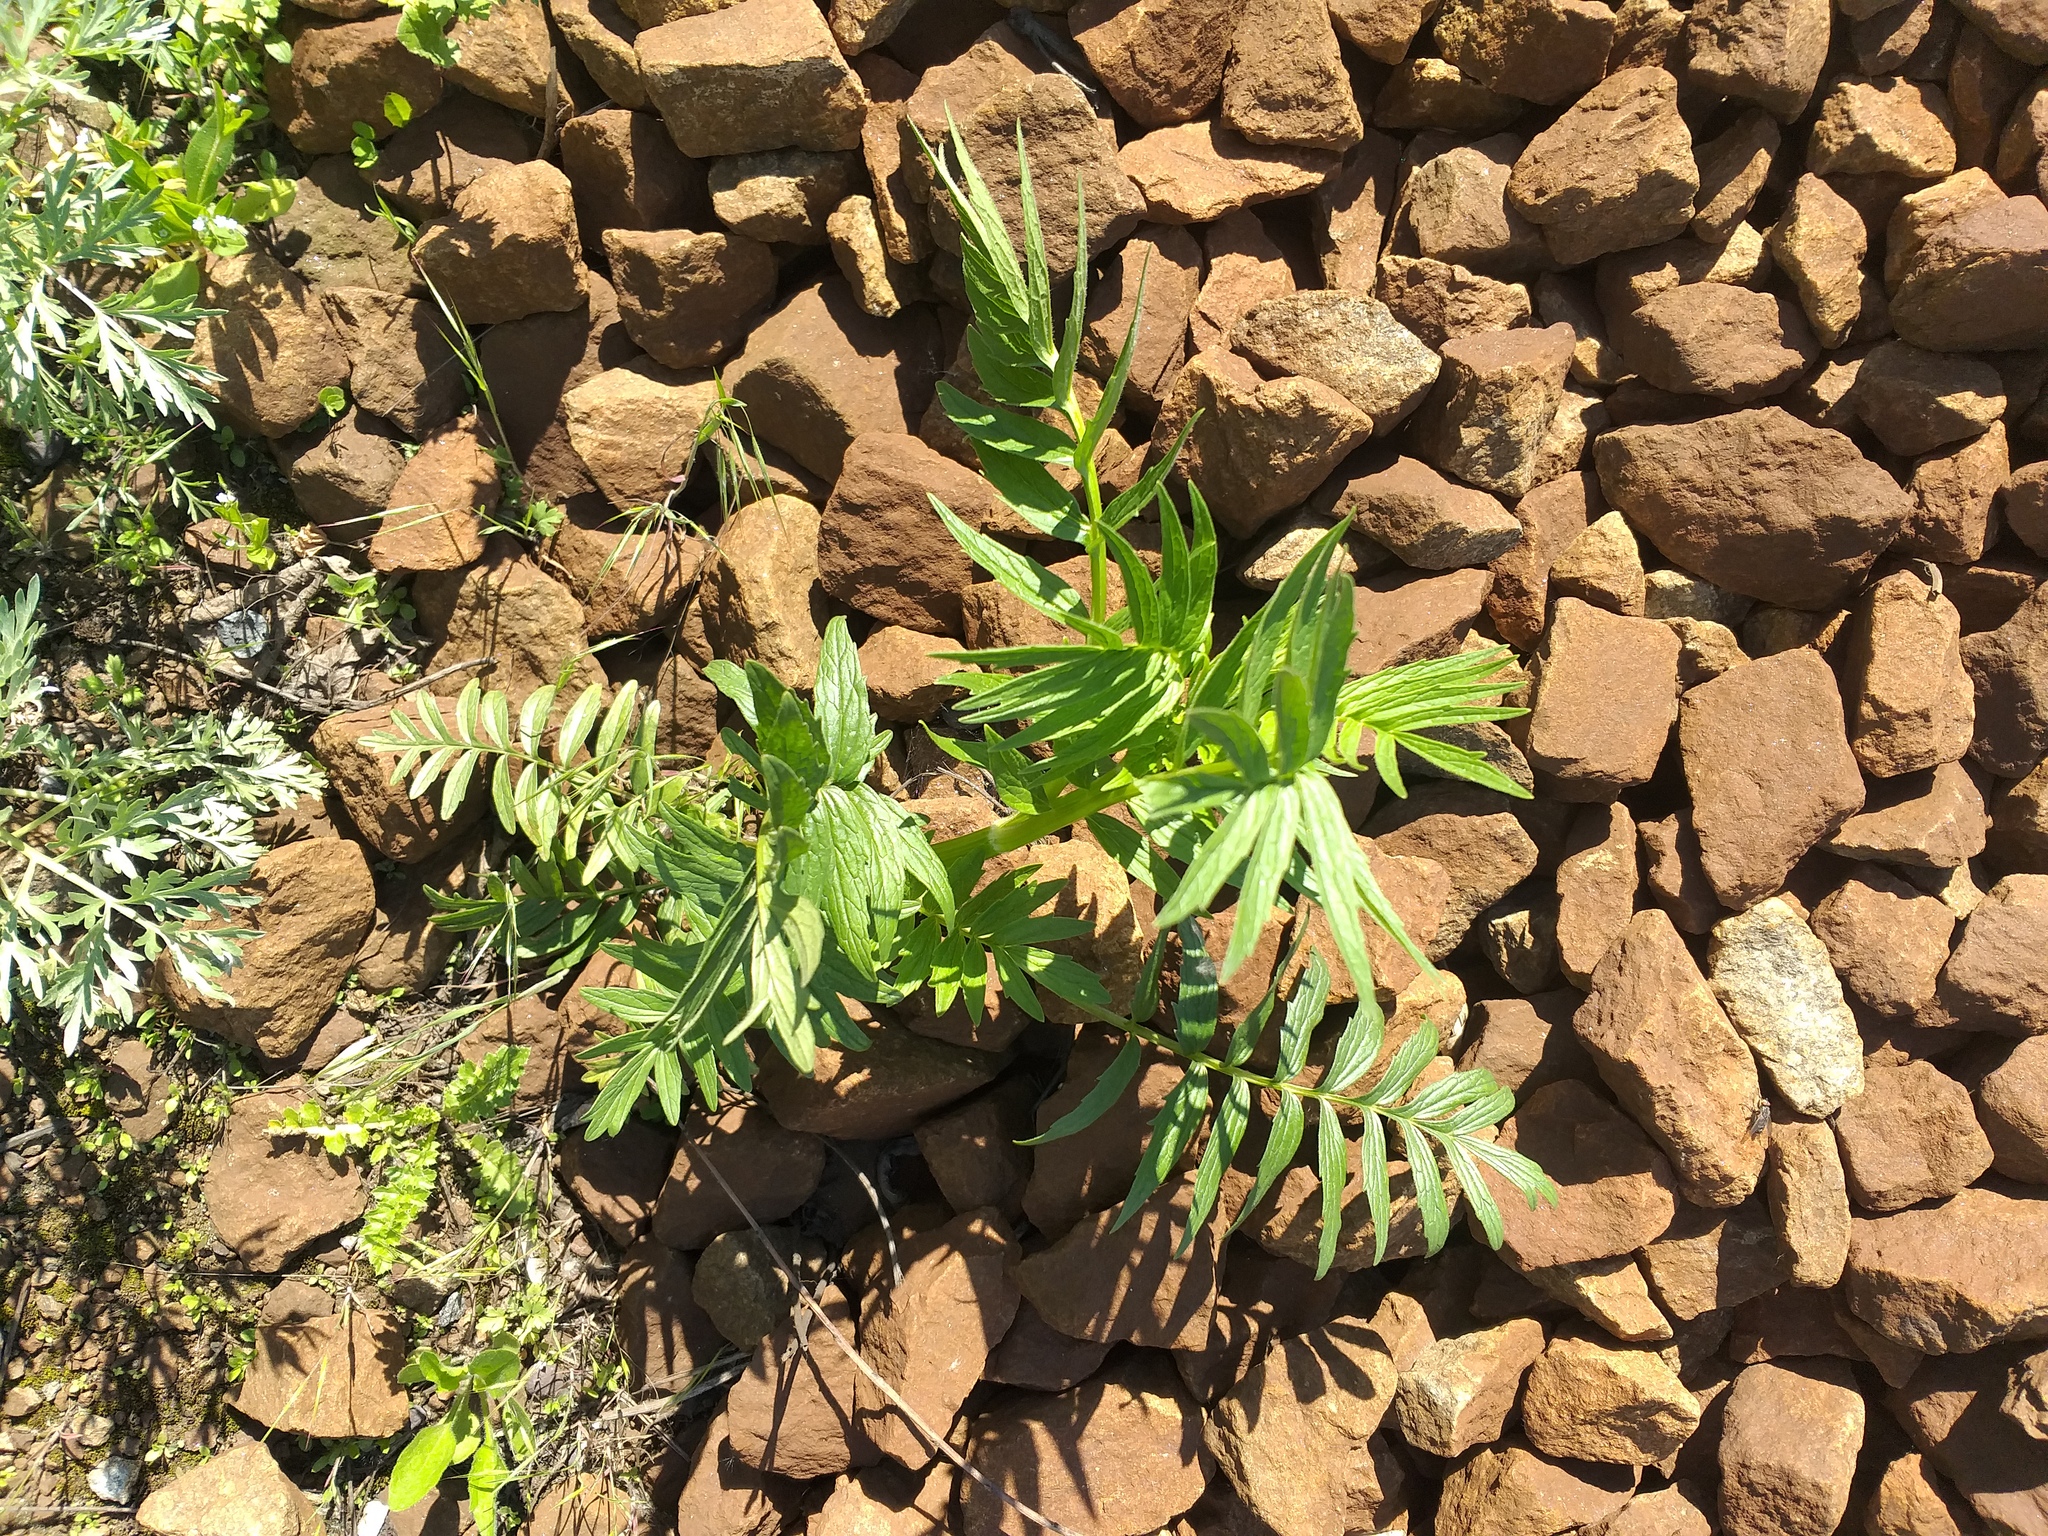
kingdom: Plantae
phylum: Tracheophyta
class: Magnoliopsida
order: Dipsacales
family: Caprifoliaceae
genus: Valeriana
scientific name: Valeriana officinalis
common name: Common valerian
